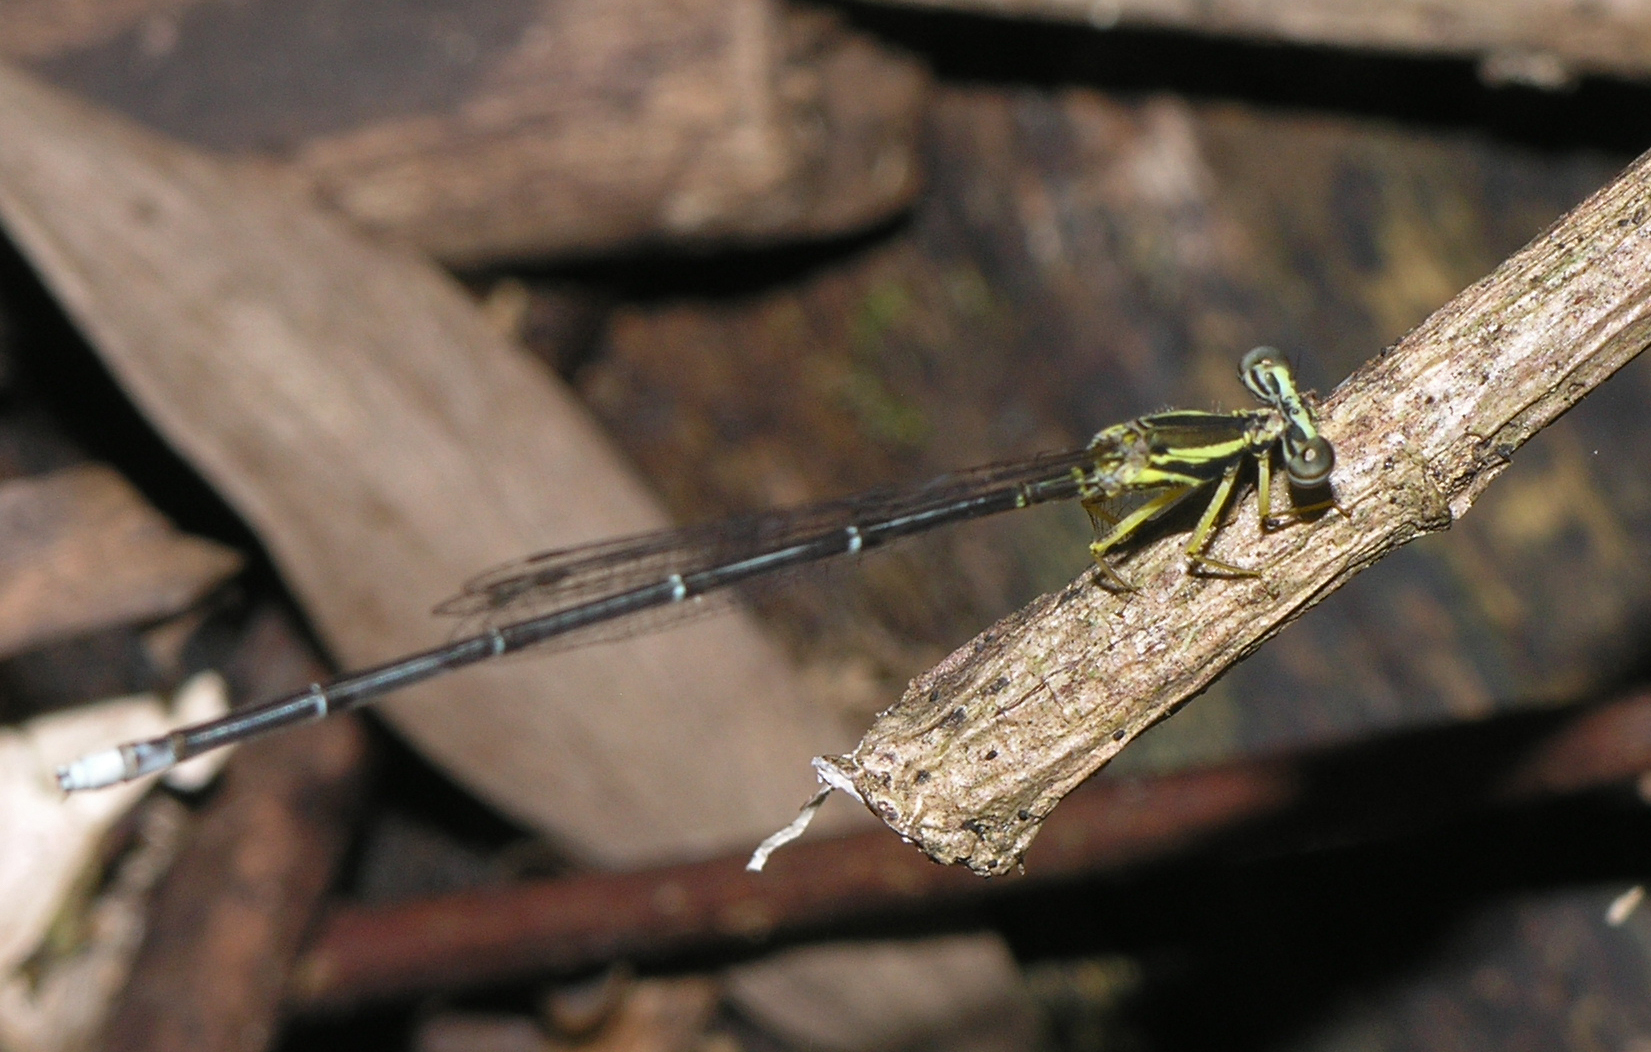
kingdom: Animalia
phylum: Arthropoda
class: Insecta
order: Odonata
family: Platycnemididae
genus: Copera
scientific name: Copera marginipes
